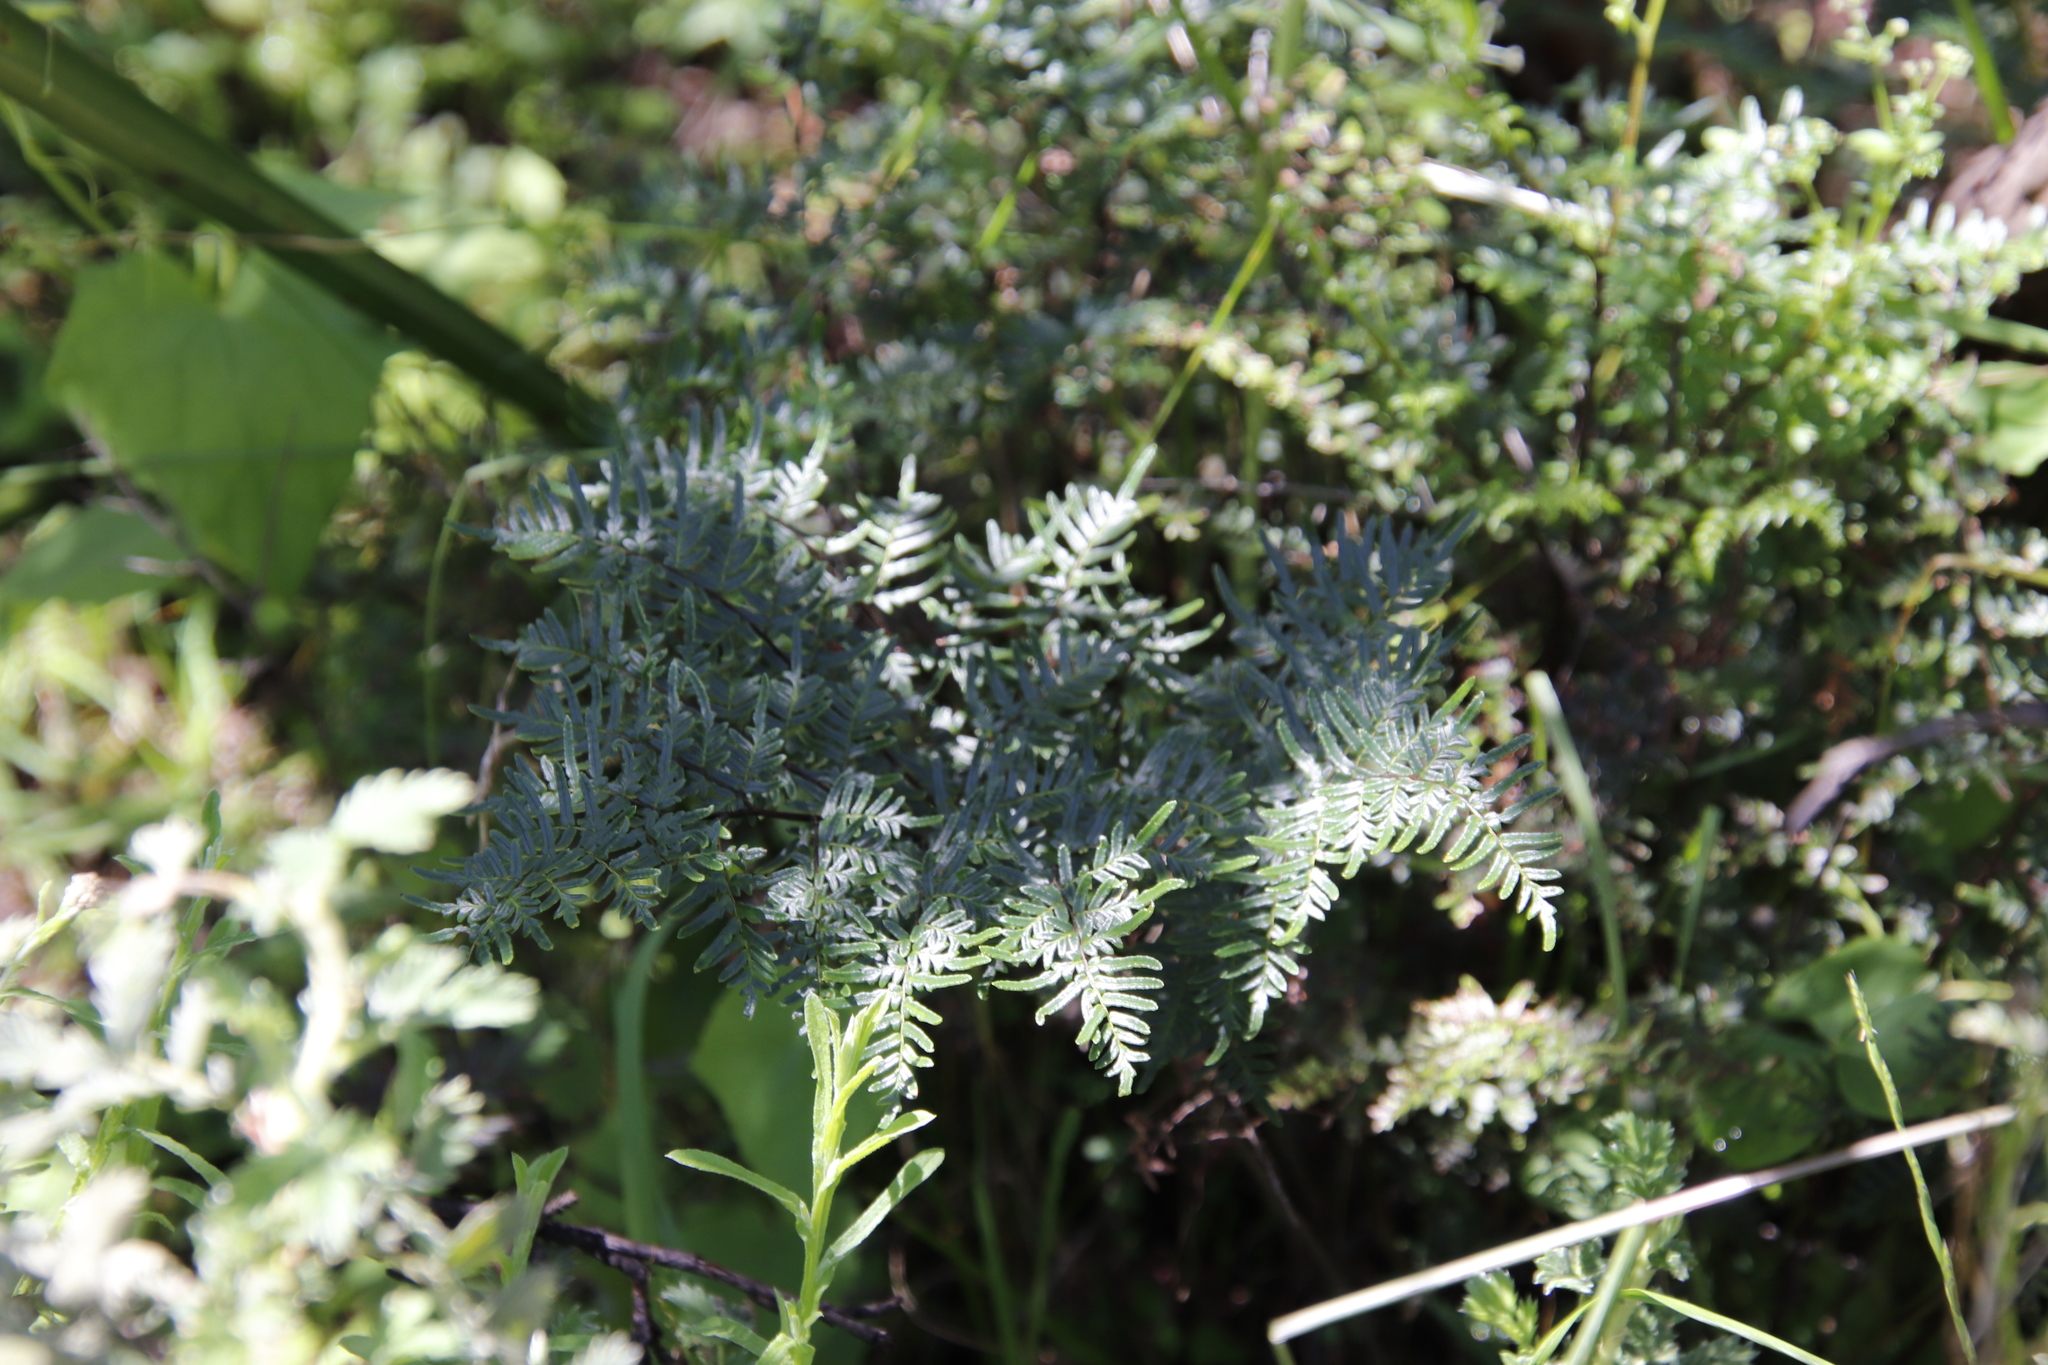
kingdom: Plantae
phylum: Tracheophyta
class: Polypodiopsida
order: Polypodiales
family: Pteridaceae
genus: Cheilanthes
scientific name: Cheilanthes quadripinnata
